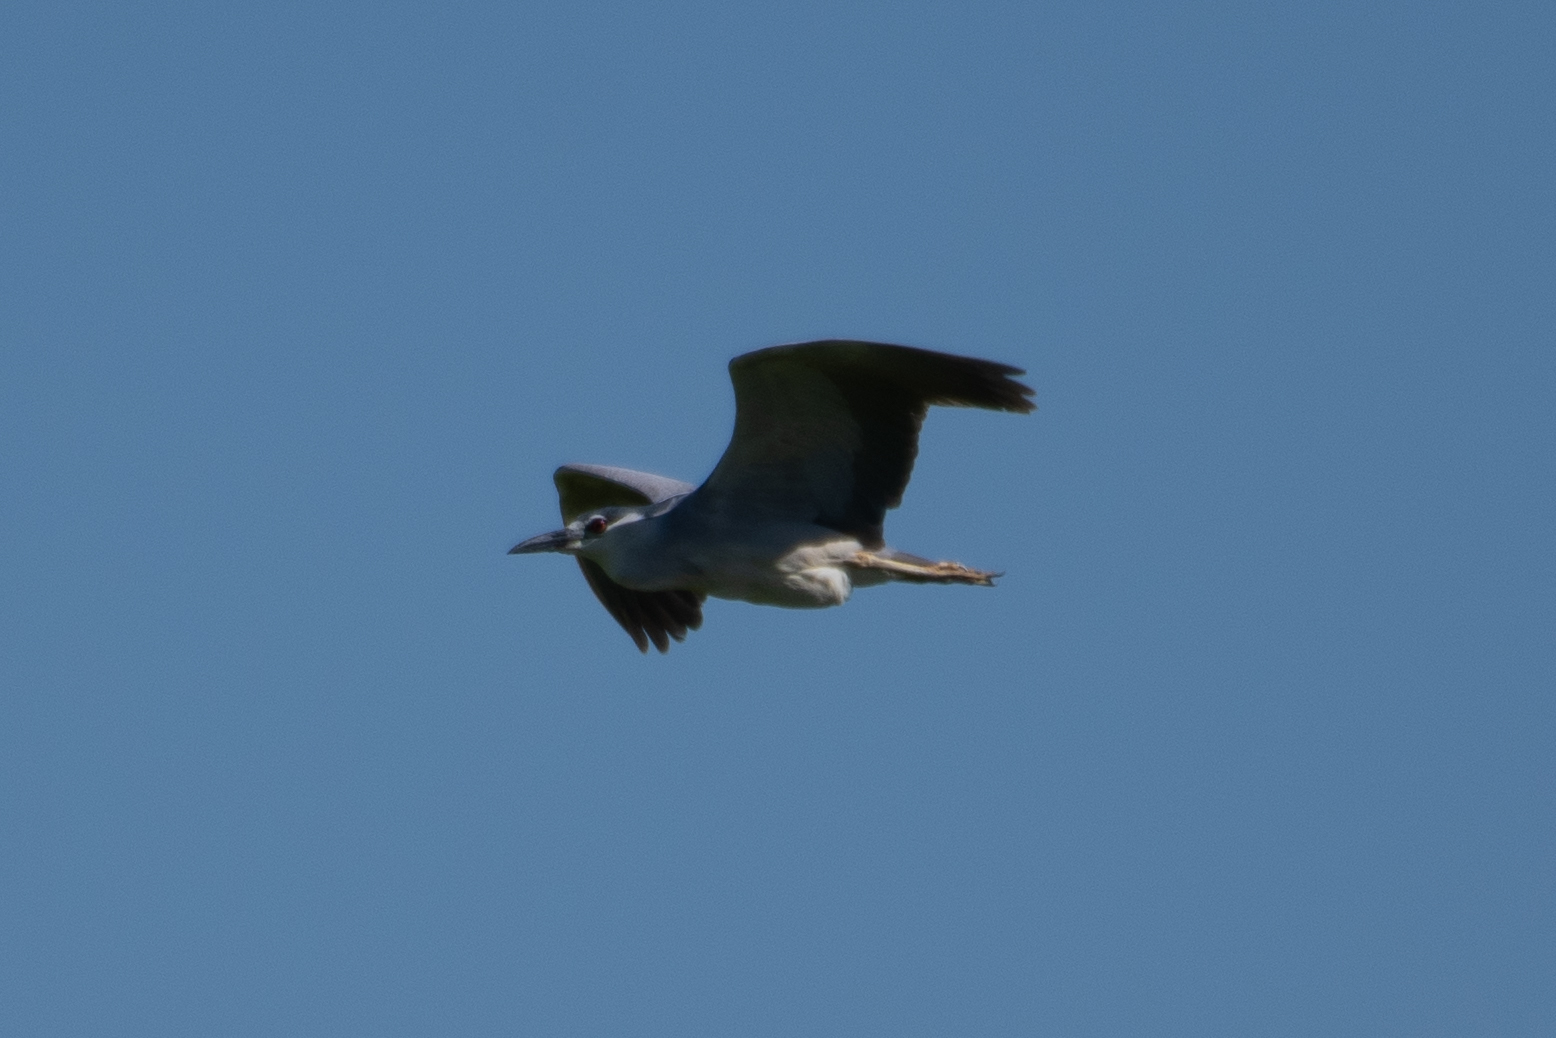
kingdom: Animalia
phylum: Chordata
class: Aves
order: Pelecaniformes
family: Ardeidae
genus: Nycticorax
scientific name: Nycticorax nycticorax
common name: Black-crowned night heron
